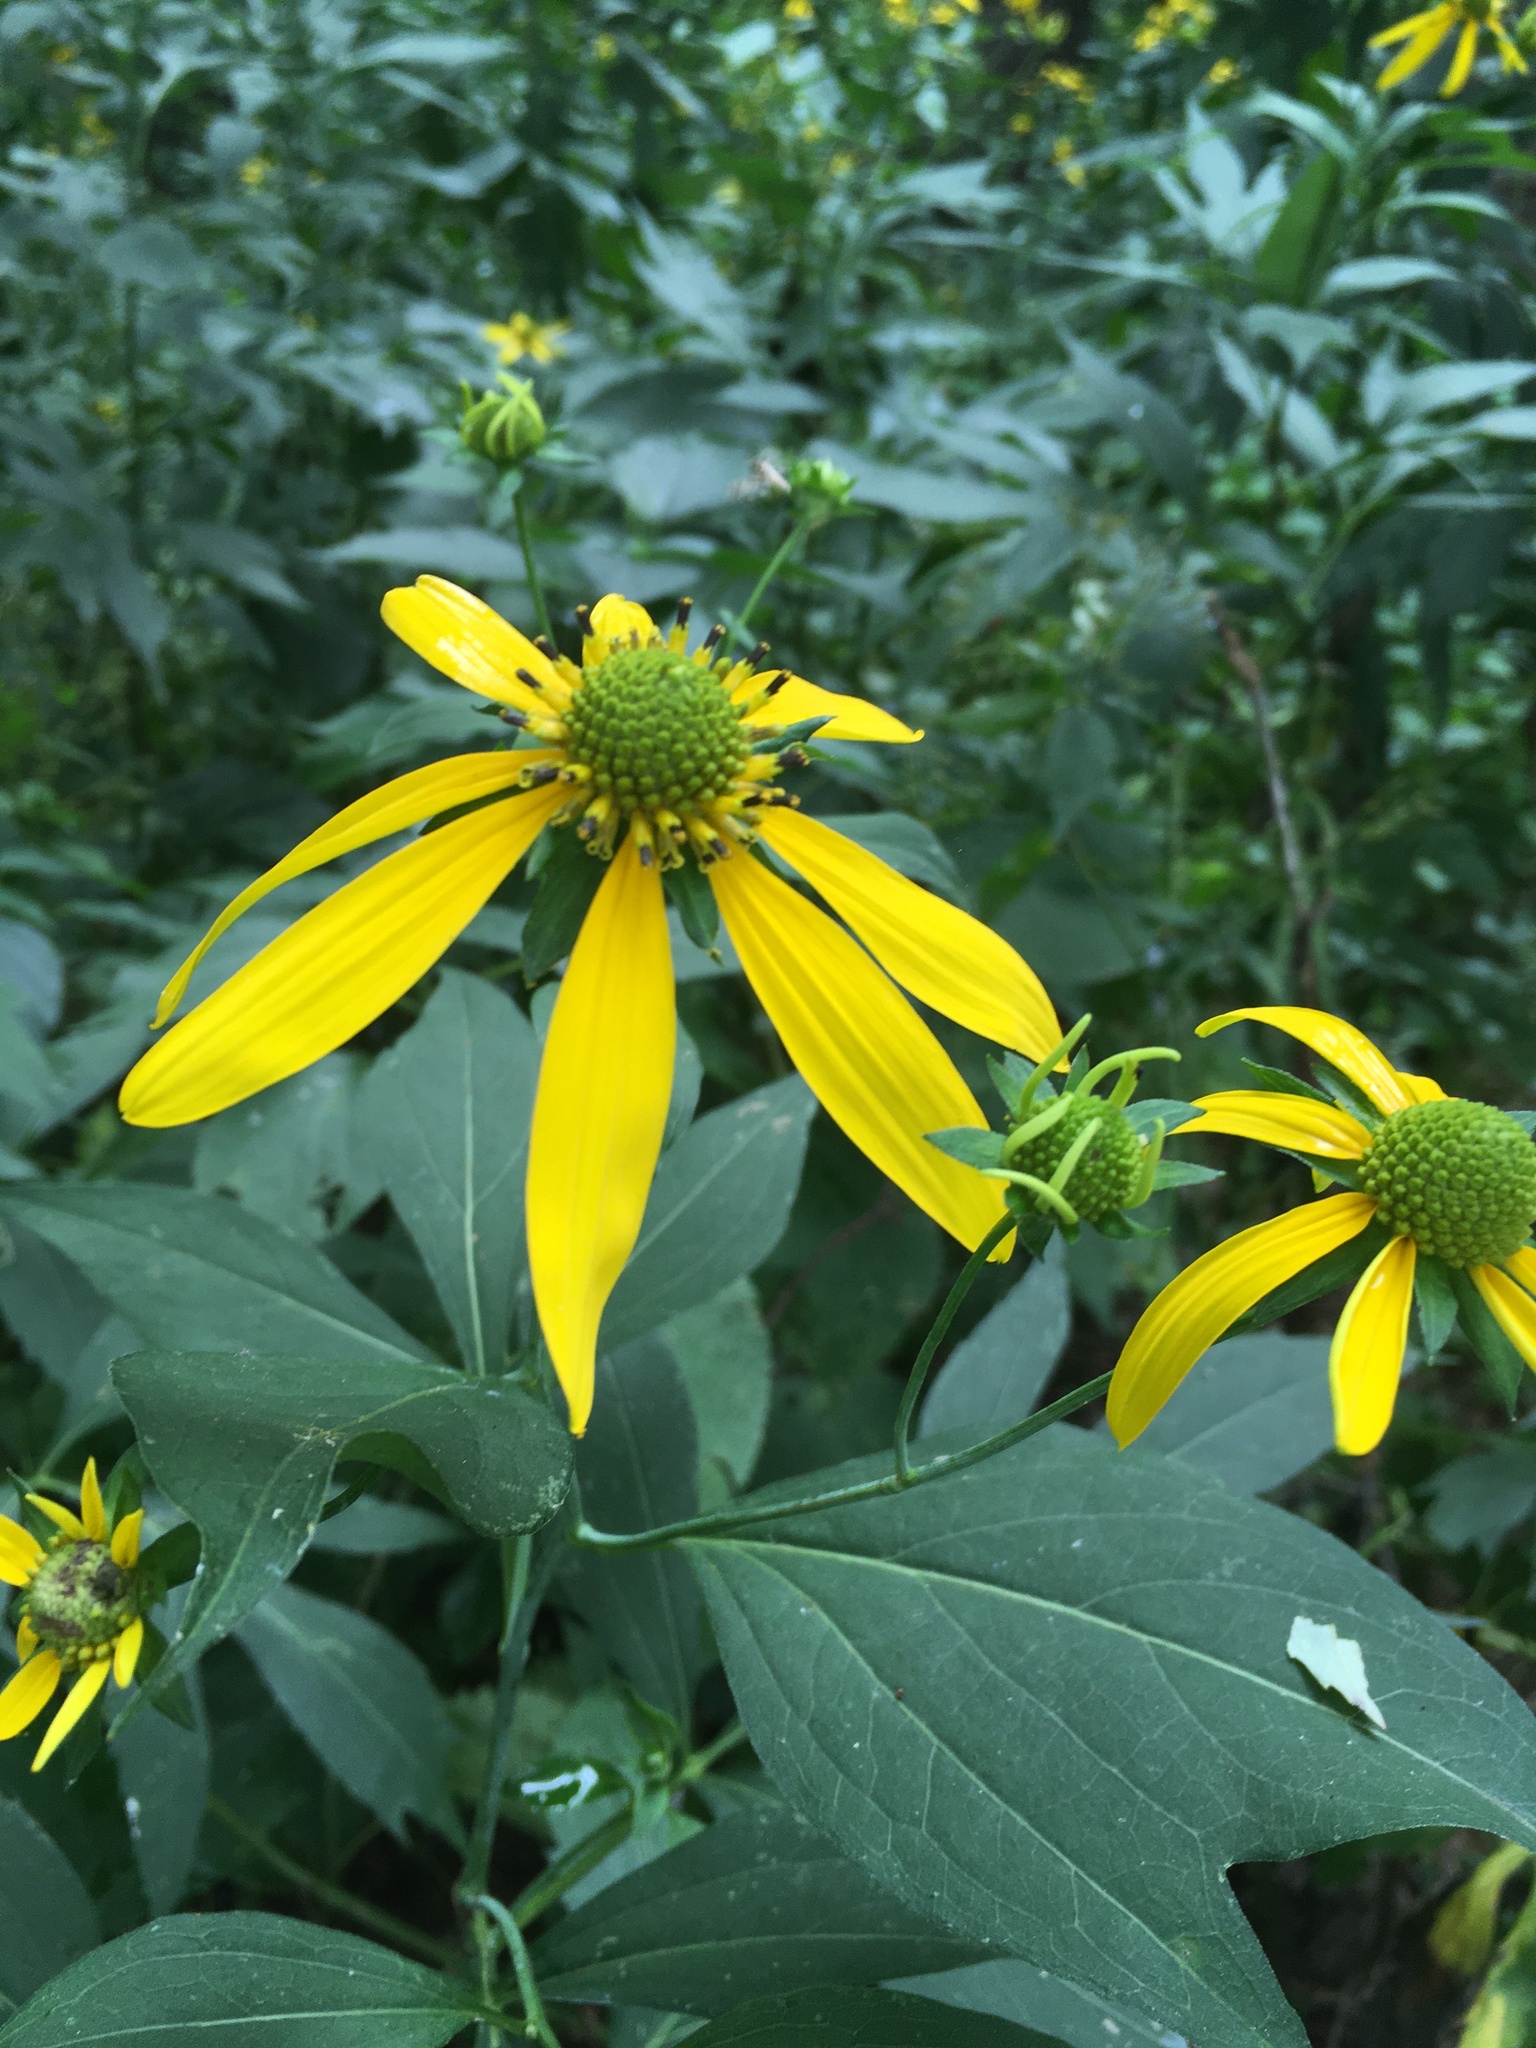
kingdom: Plantae
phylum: Tracheophyta
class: Magnoliopsida
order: Asterales
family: Asteraceae
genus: Rudbeckia
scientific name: Rudbeckia laciniata
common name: Coneflower
